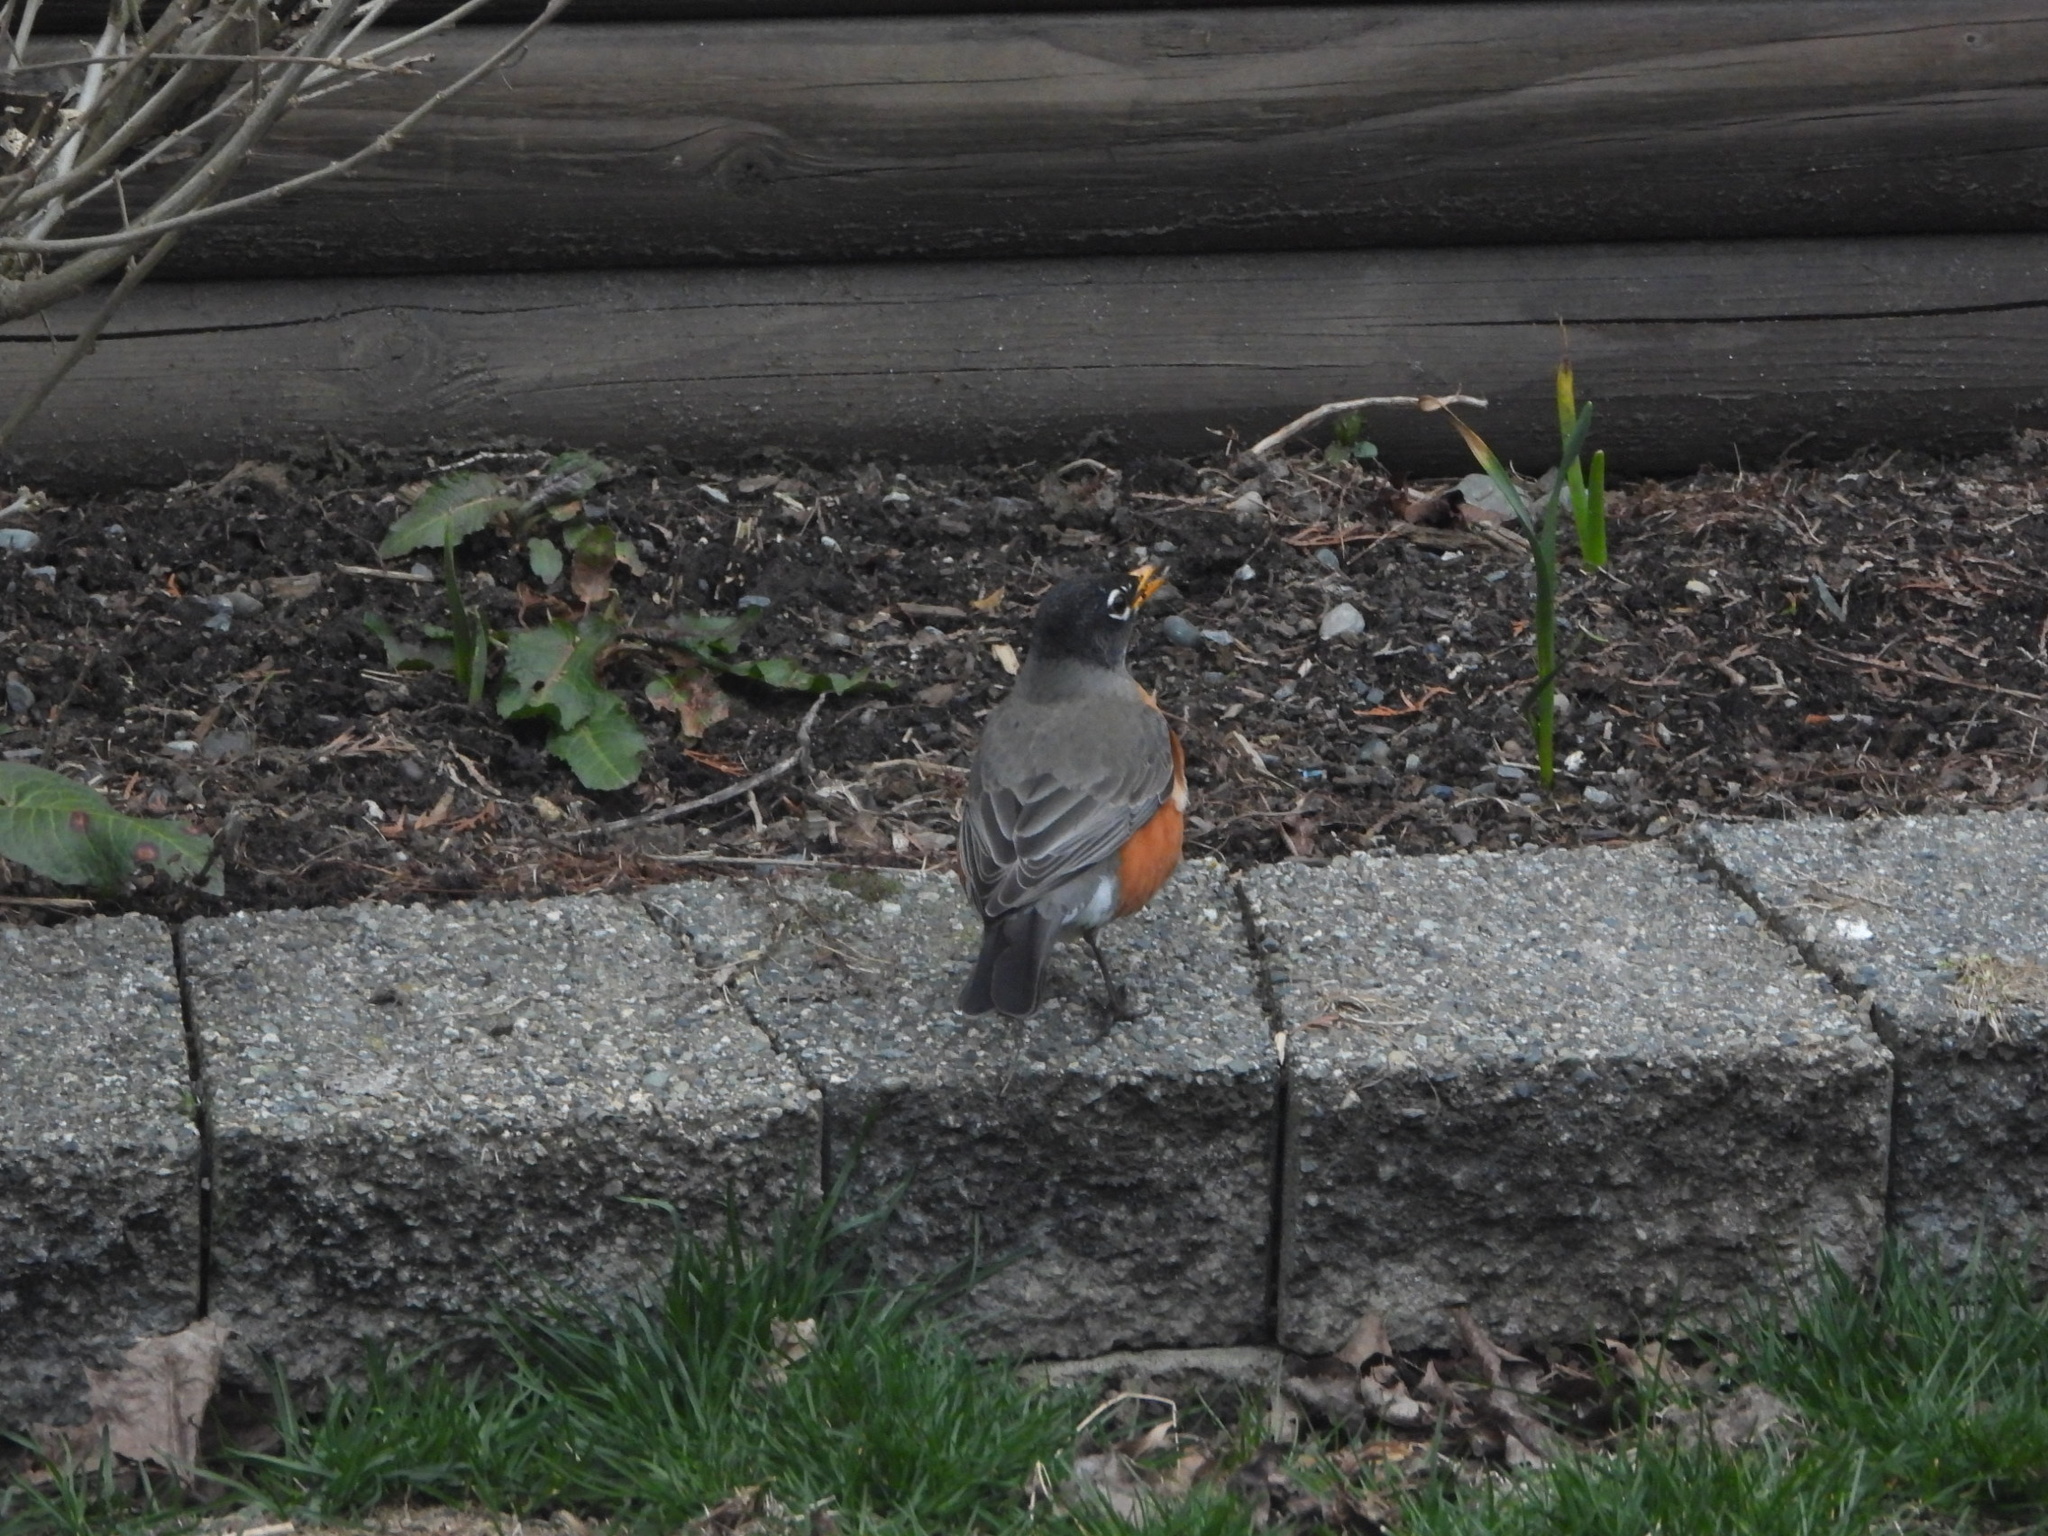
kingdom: Animalia
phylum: Chordata
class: Aves
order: Passeriformes
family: Turdidae
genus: Turdus
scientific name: Turdus migratorius
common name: American robin
